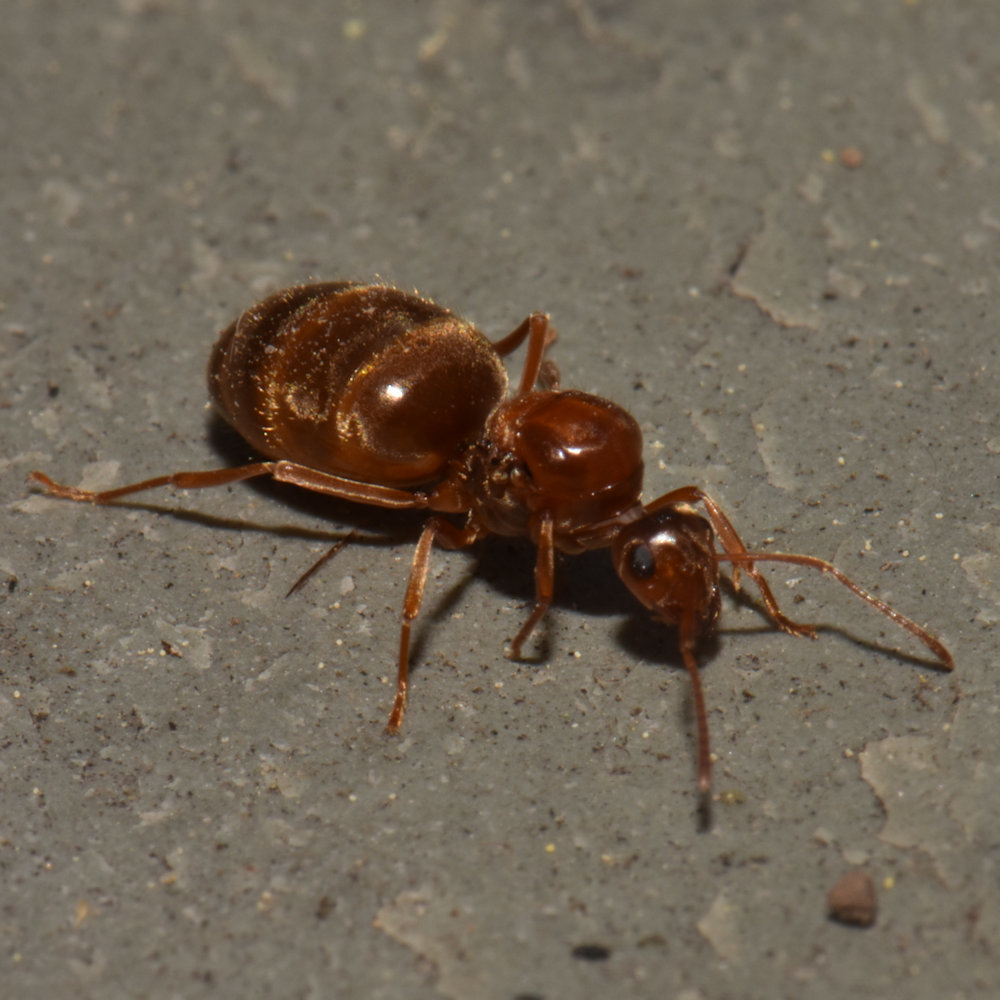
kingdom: Animalia
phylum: Arthropoda
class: Insecta
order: Hymenoptera
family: Formicidae
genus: Prenolepis
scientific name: Prenolepis imparis
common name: Small honey ant
